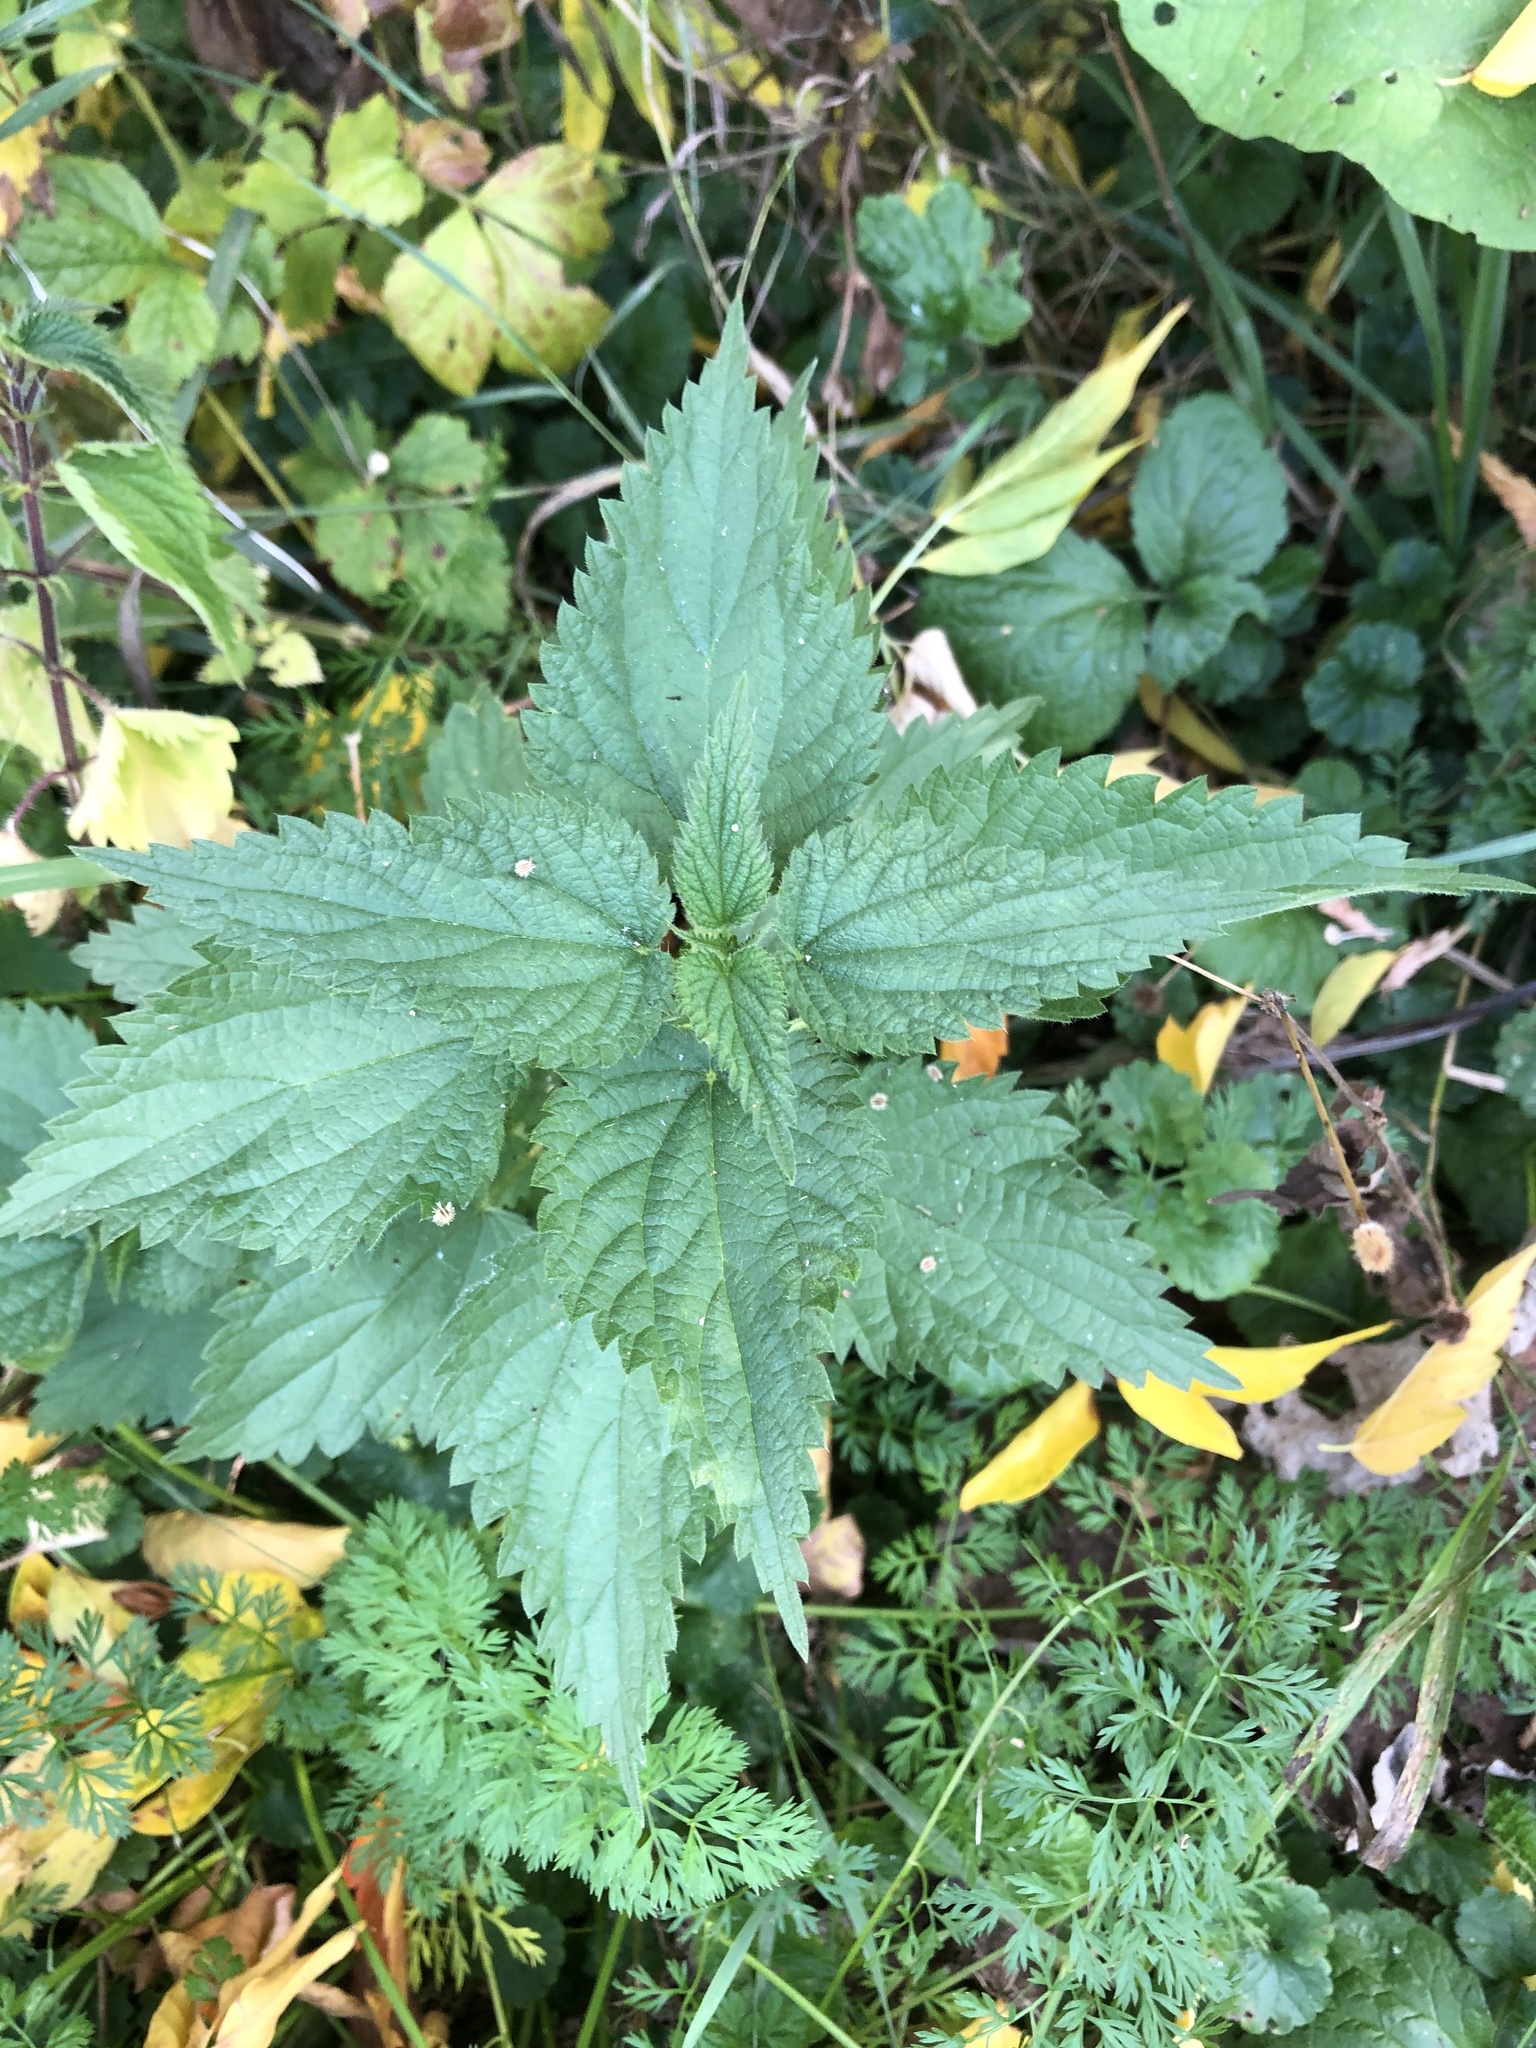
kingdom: Plantae
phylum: Tracheophyta
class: Magnoliopsida
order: Rosales
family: Urticaceae
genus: Urtica
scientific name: Urtica dioica
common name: Common nettle
